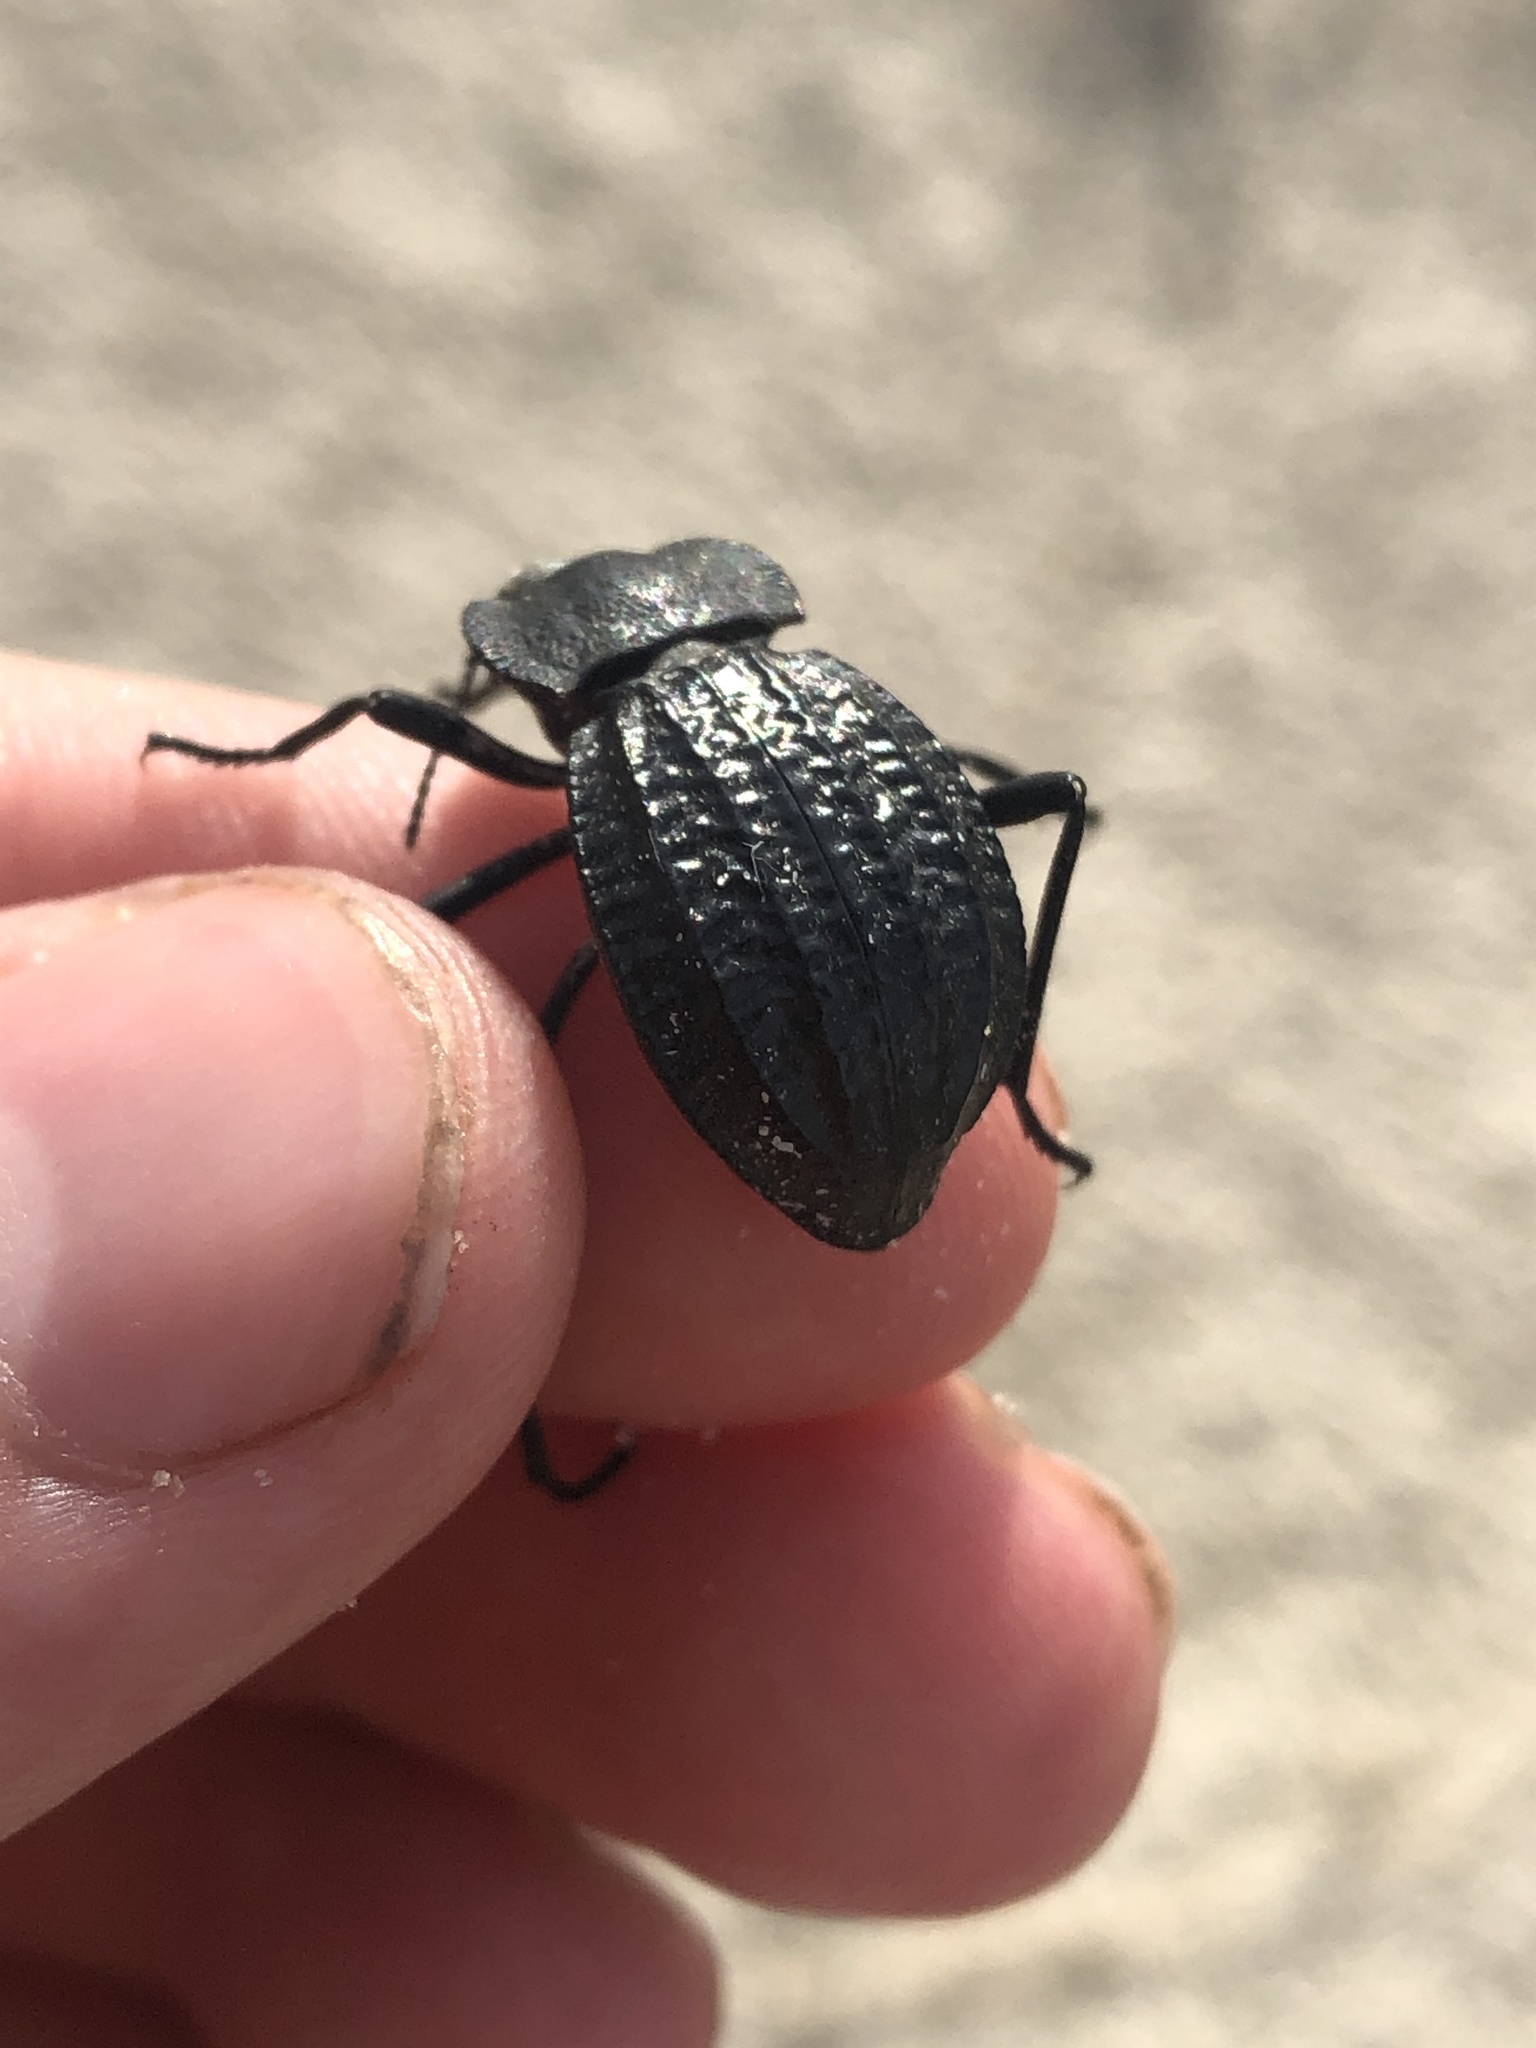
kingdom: Animalia
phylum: Arthropoda
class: Insecta
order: Coleoptera
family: Tenebrionidae
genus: Philolithus
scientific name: Philolithus
